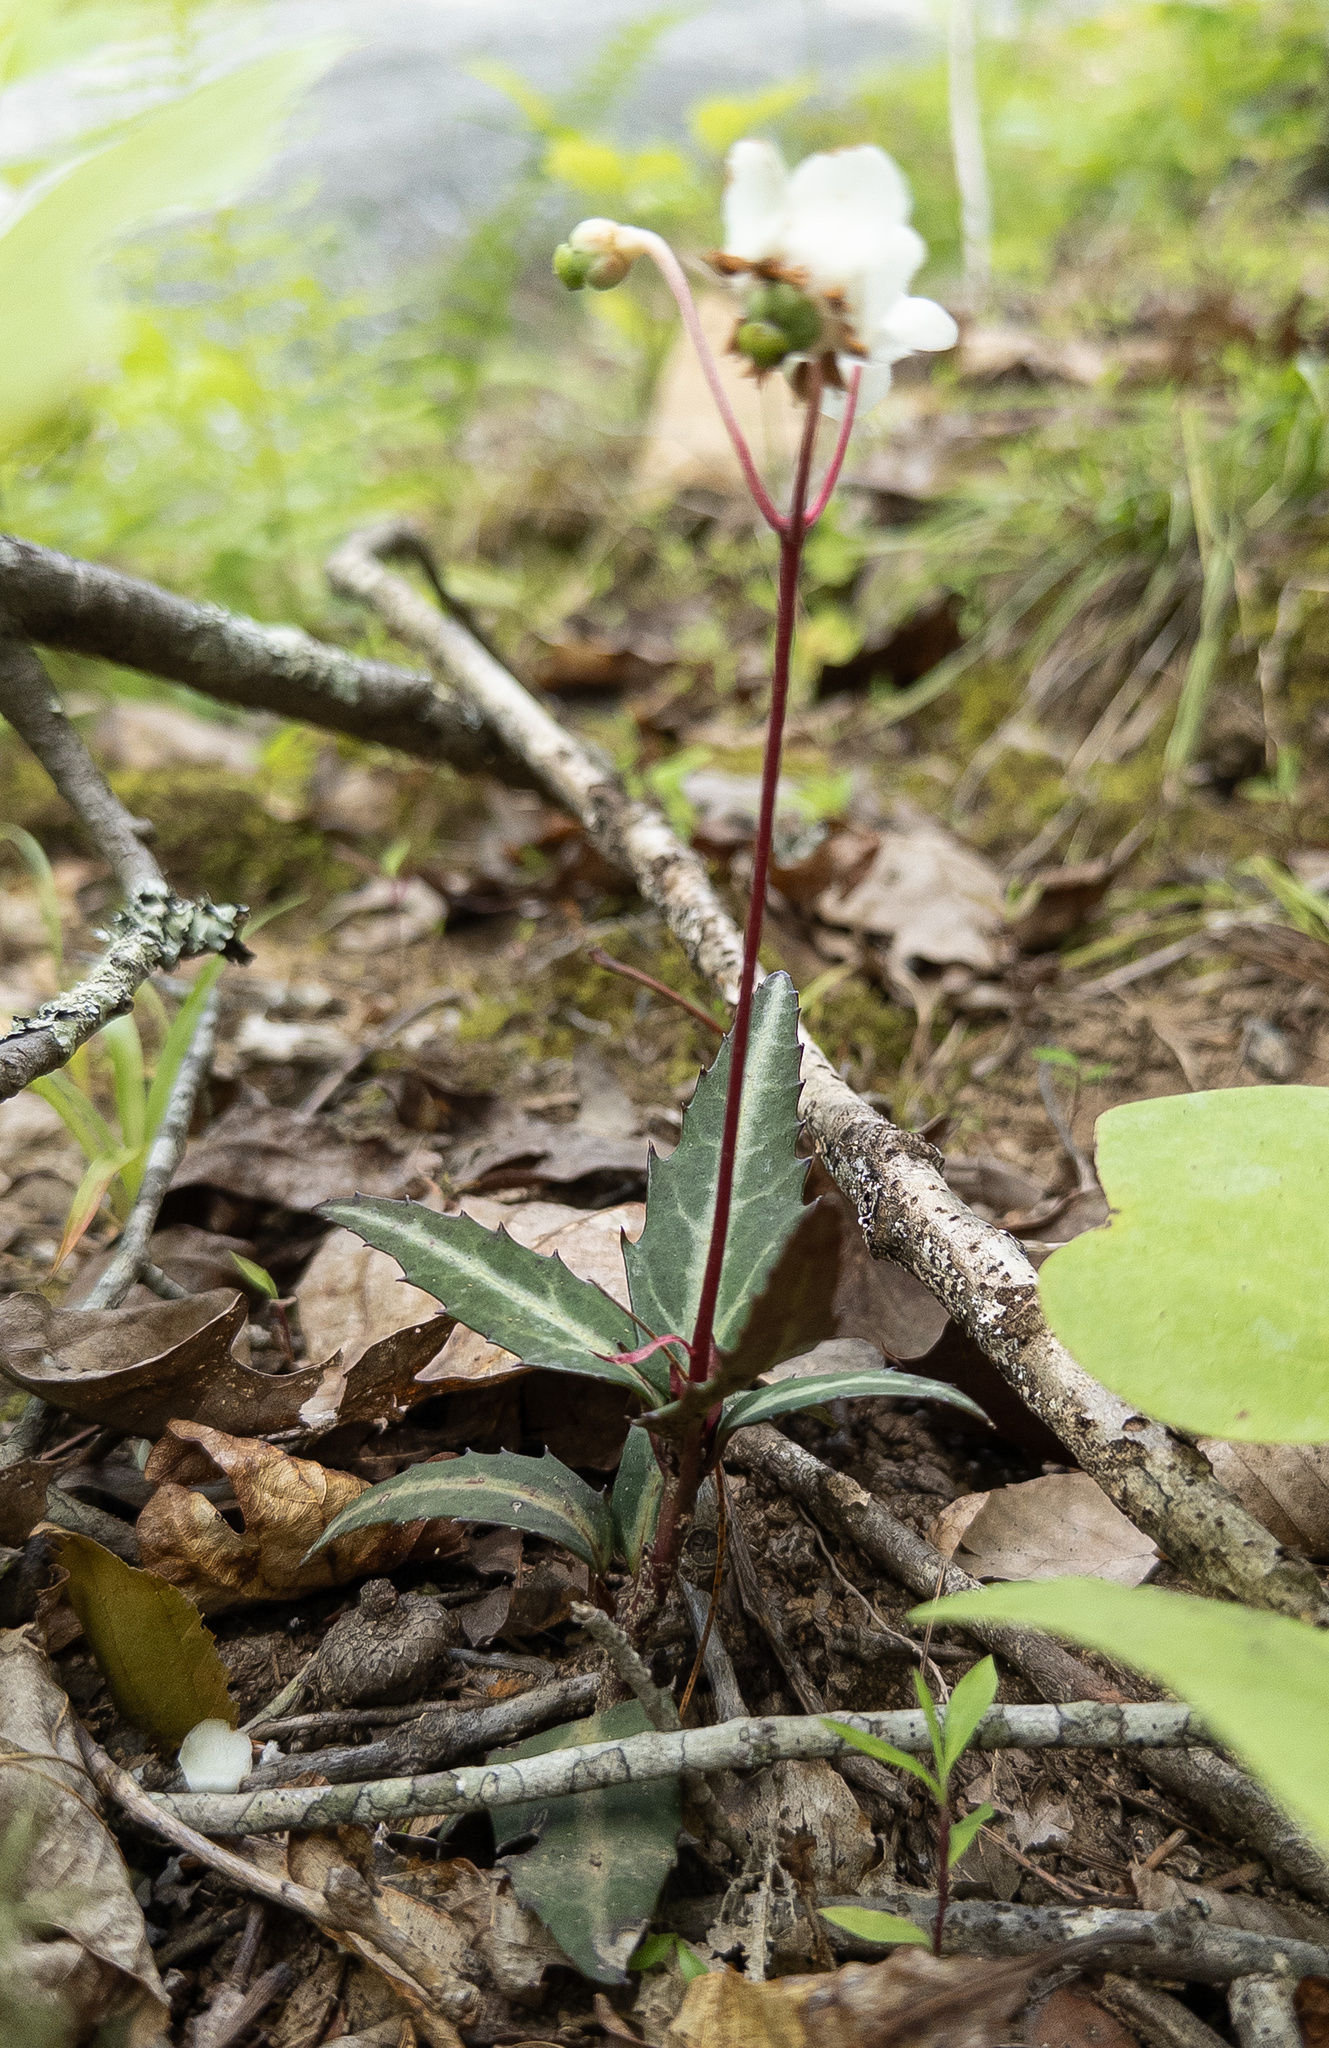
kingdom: Plantae
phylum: Tracheophyta
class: Magnoliopsida
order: Ericales
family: Ericaceae
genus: Chimaphila
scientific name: Chimaphila maculata
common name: Spotted pipsissewa
